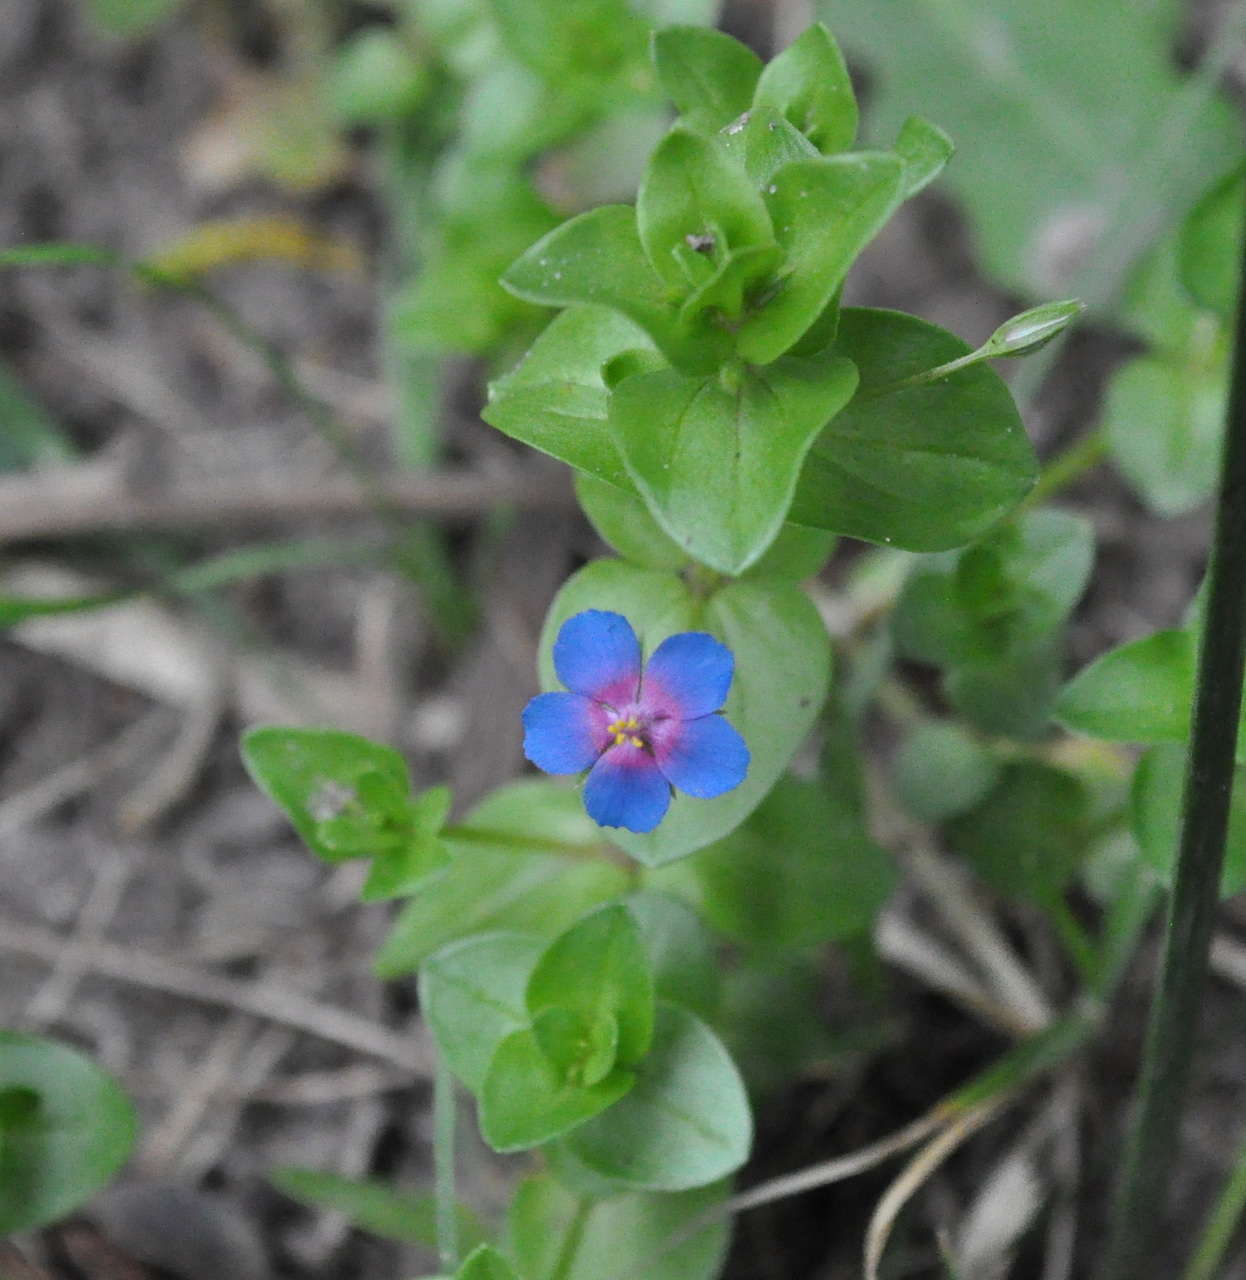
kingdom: Plantae
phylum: Tracheophyta
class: Magnoliopsida
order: Ericales
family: Primulaceae
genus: Lysimachia
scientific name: Lysimachia loeflingii
